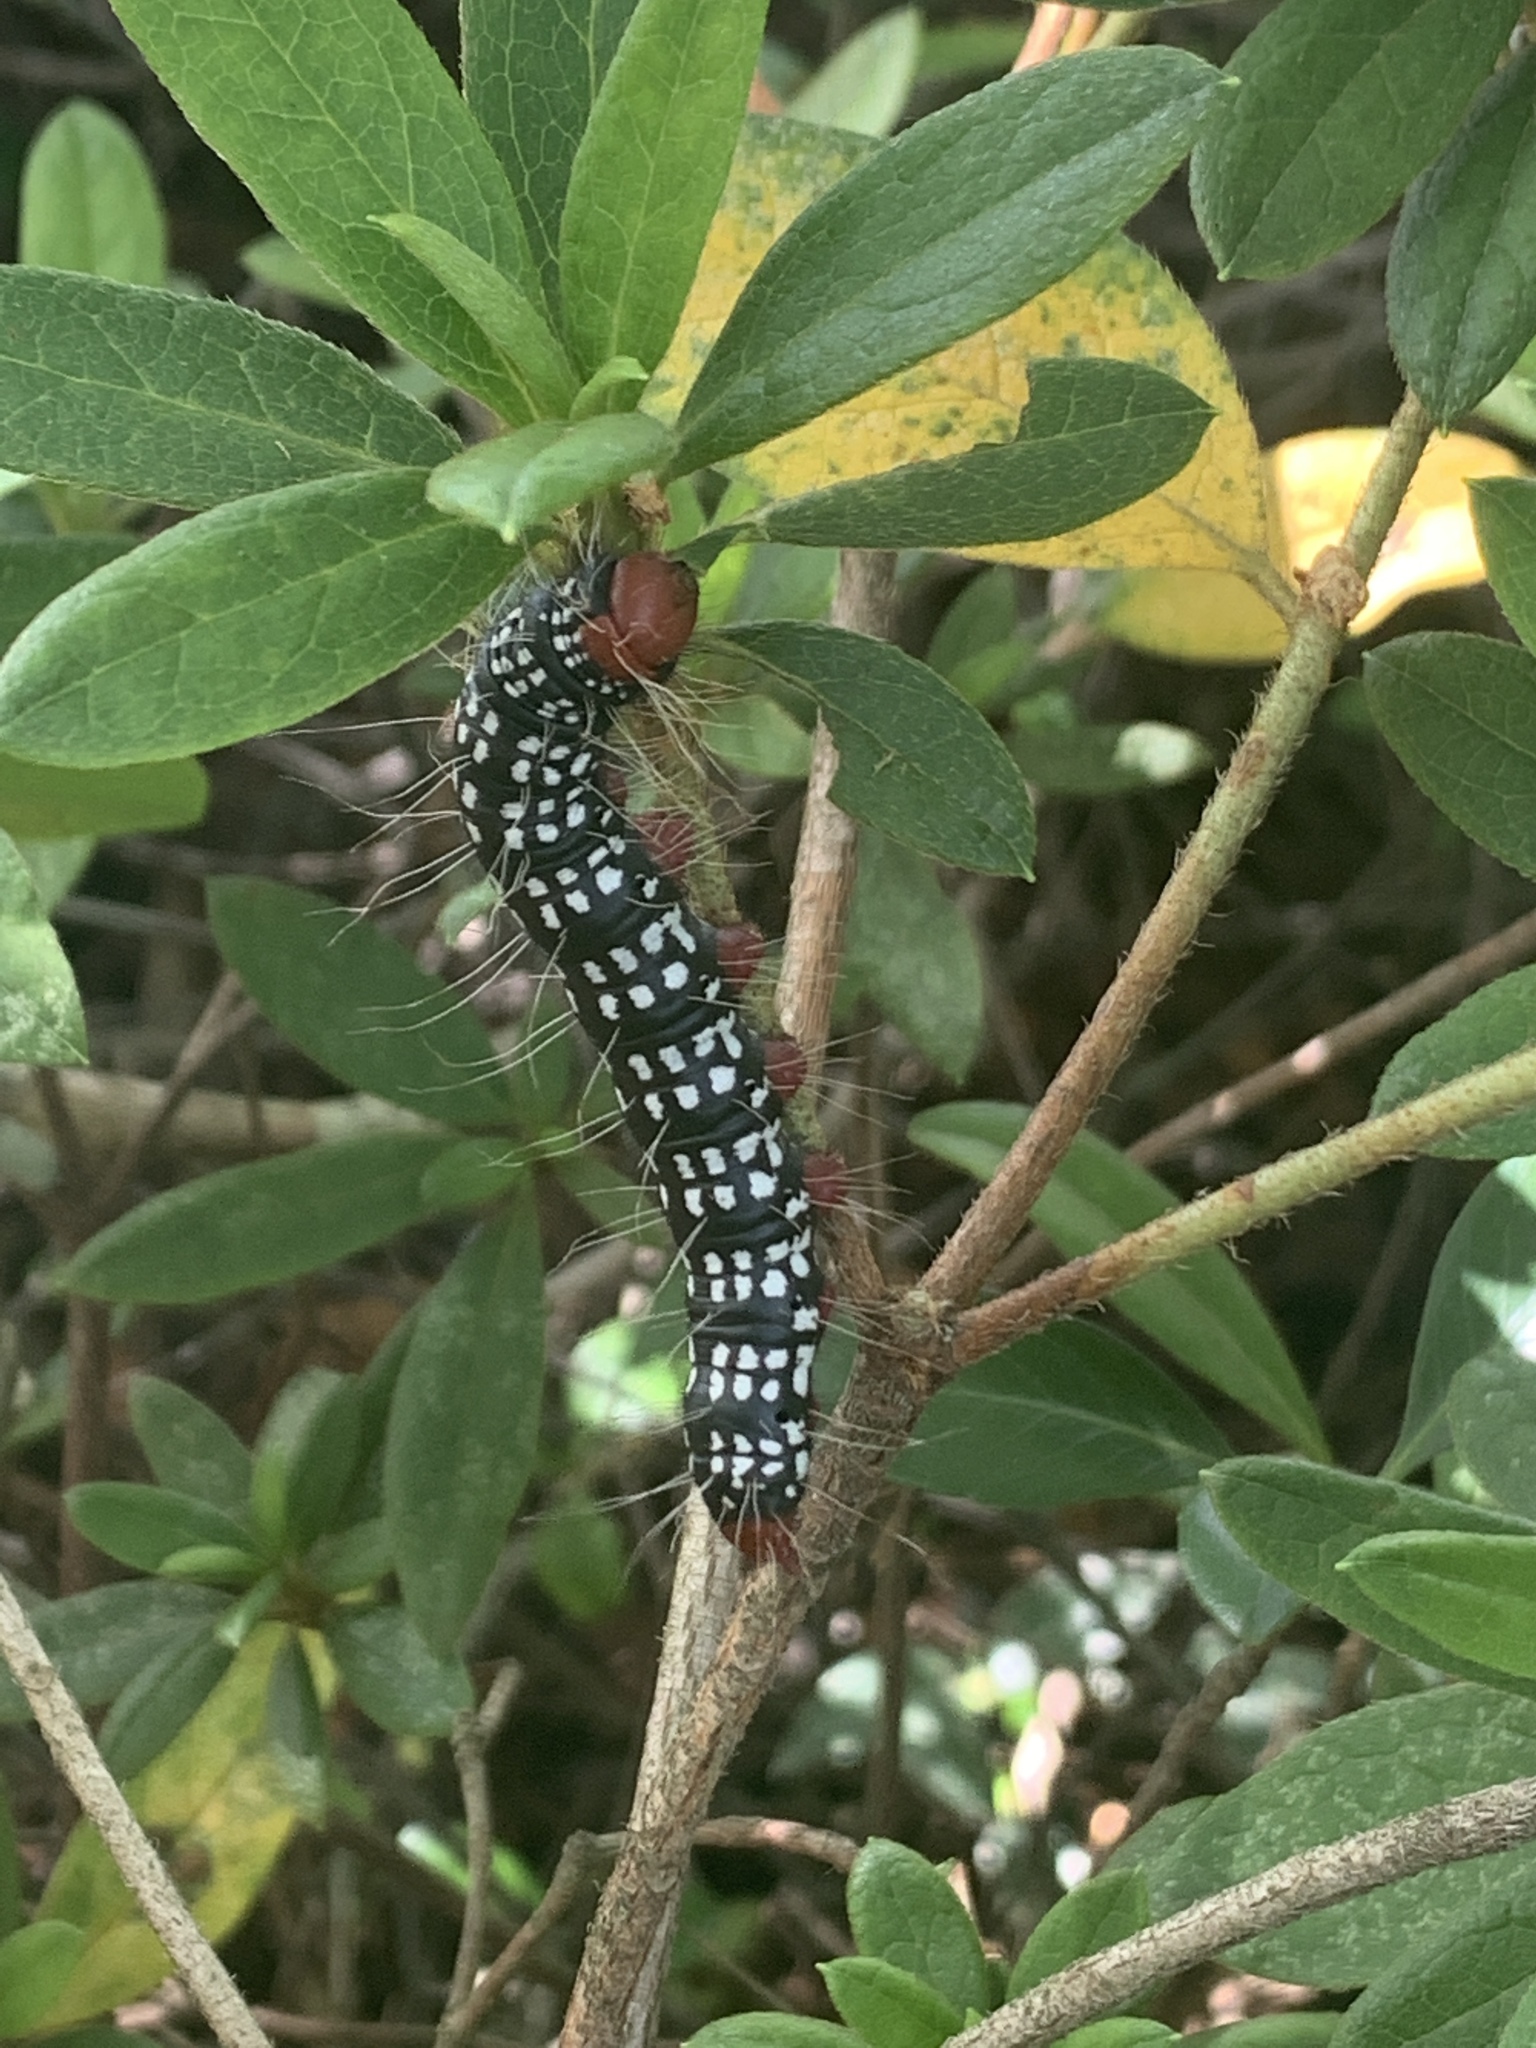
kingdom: Animalia
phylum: Arthropoda
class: Insecta
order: Lepidoptera
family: Notodontidae
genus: Datana
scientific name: Datana major
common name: Azalea caterpillar
